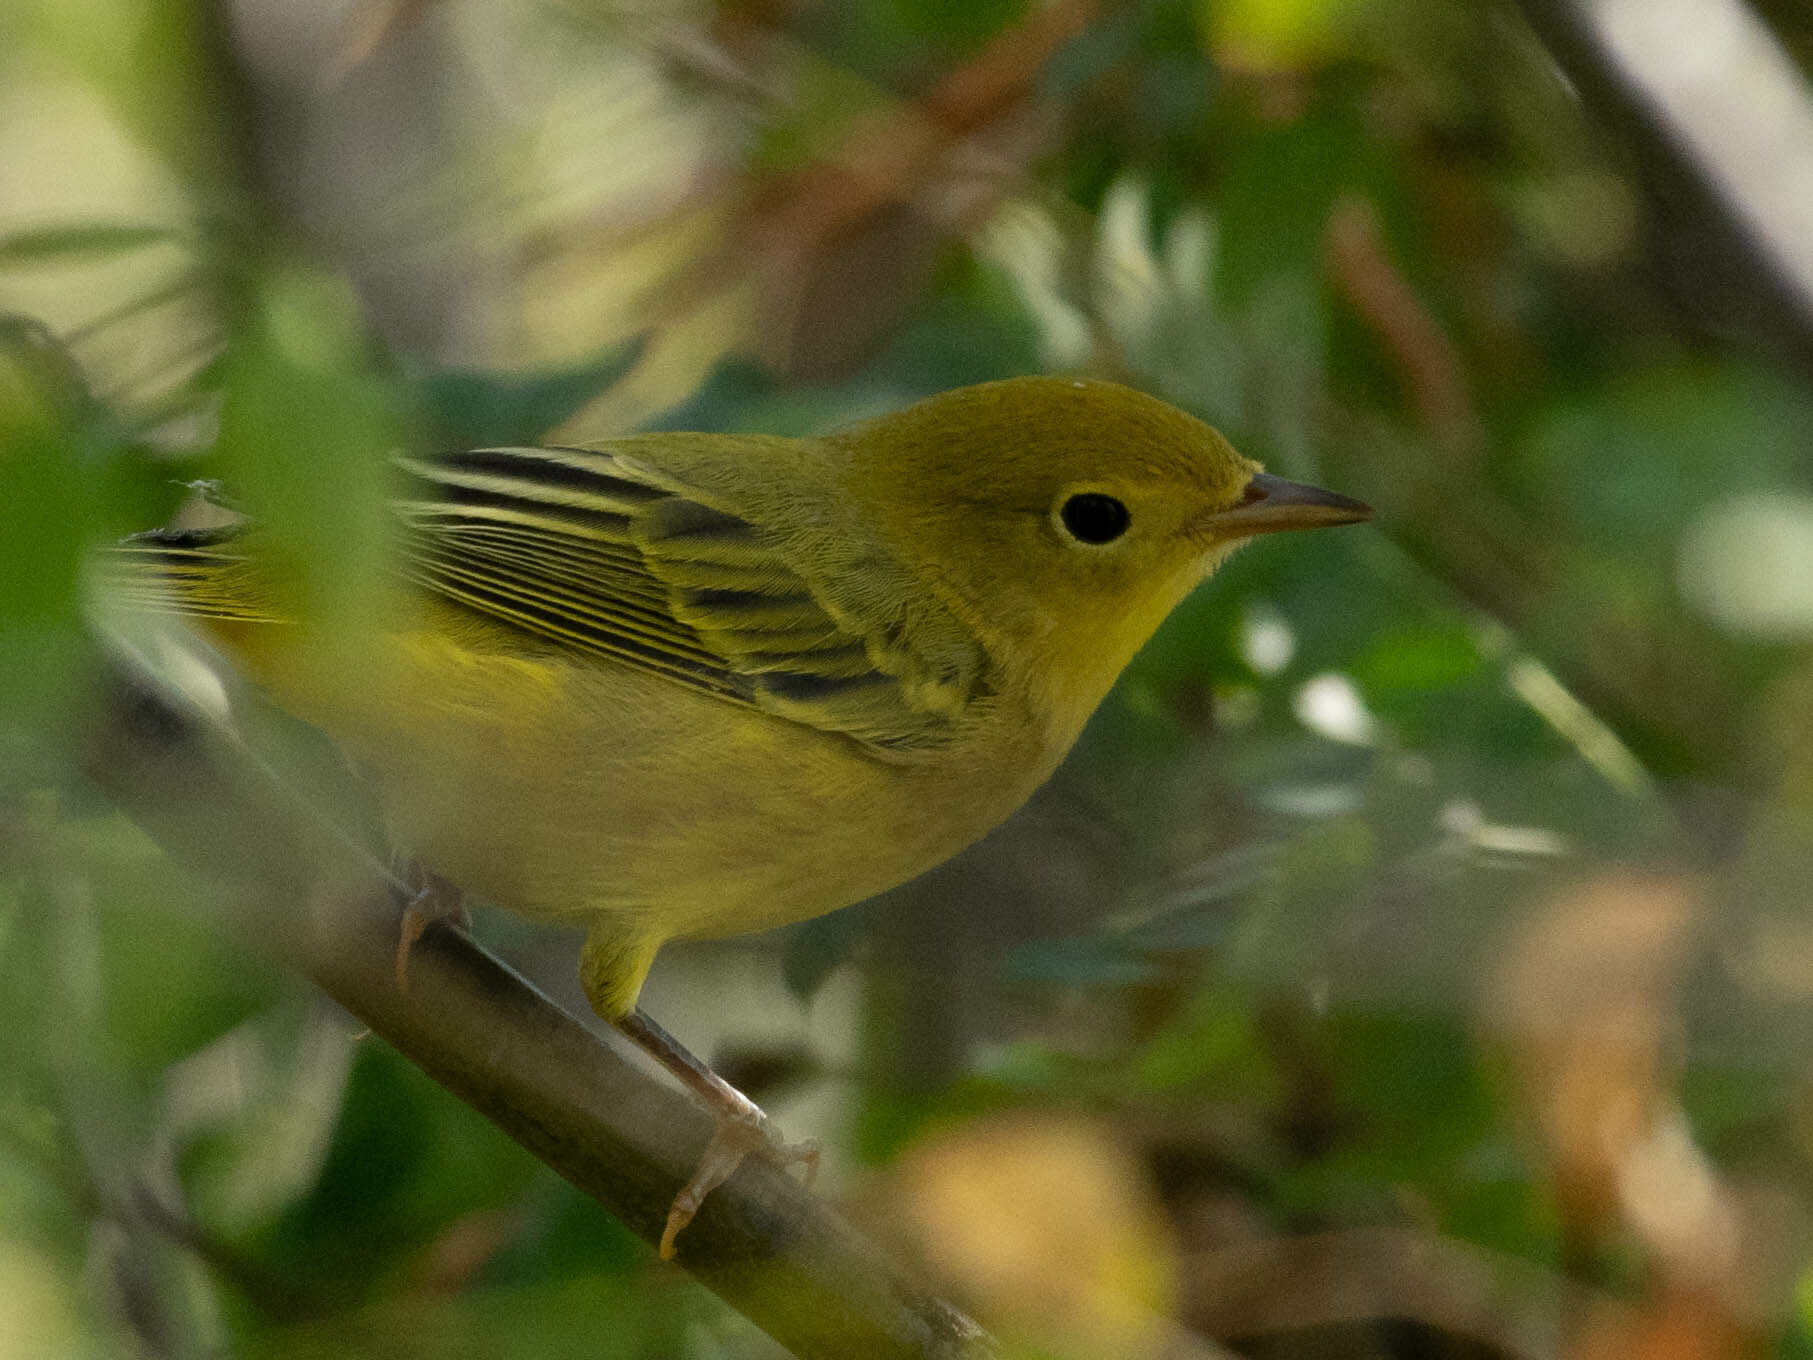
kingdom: Animalia
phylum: Chordata
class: Aves
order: Passeriformes
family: Parulidae
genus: Setophaga
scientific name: Setophaga petechia
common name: Yellow warbler
